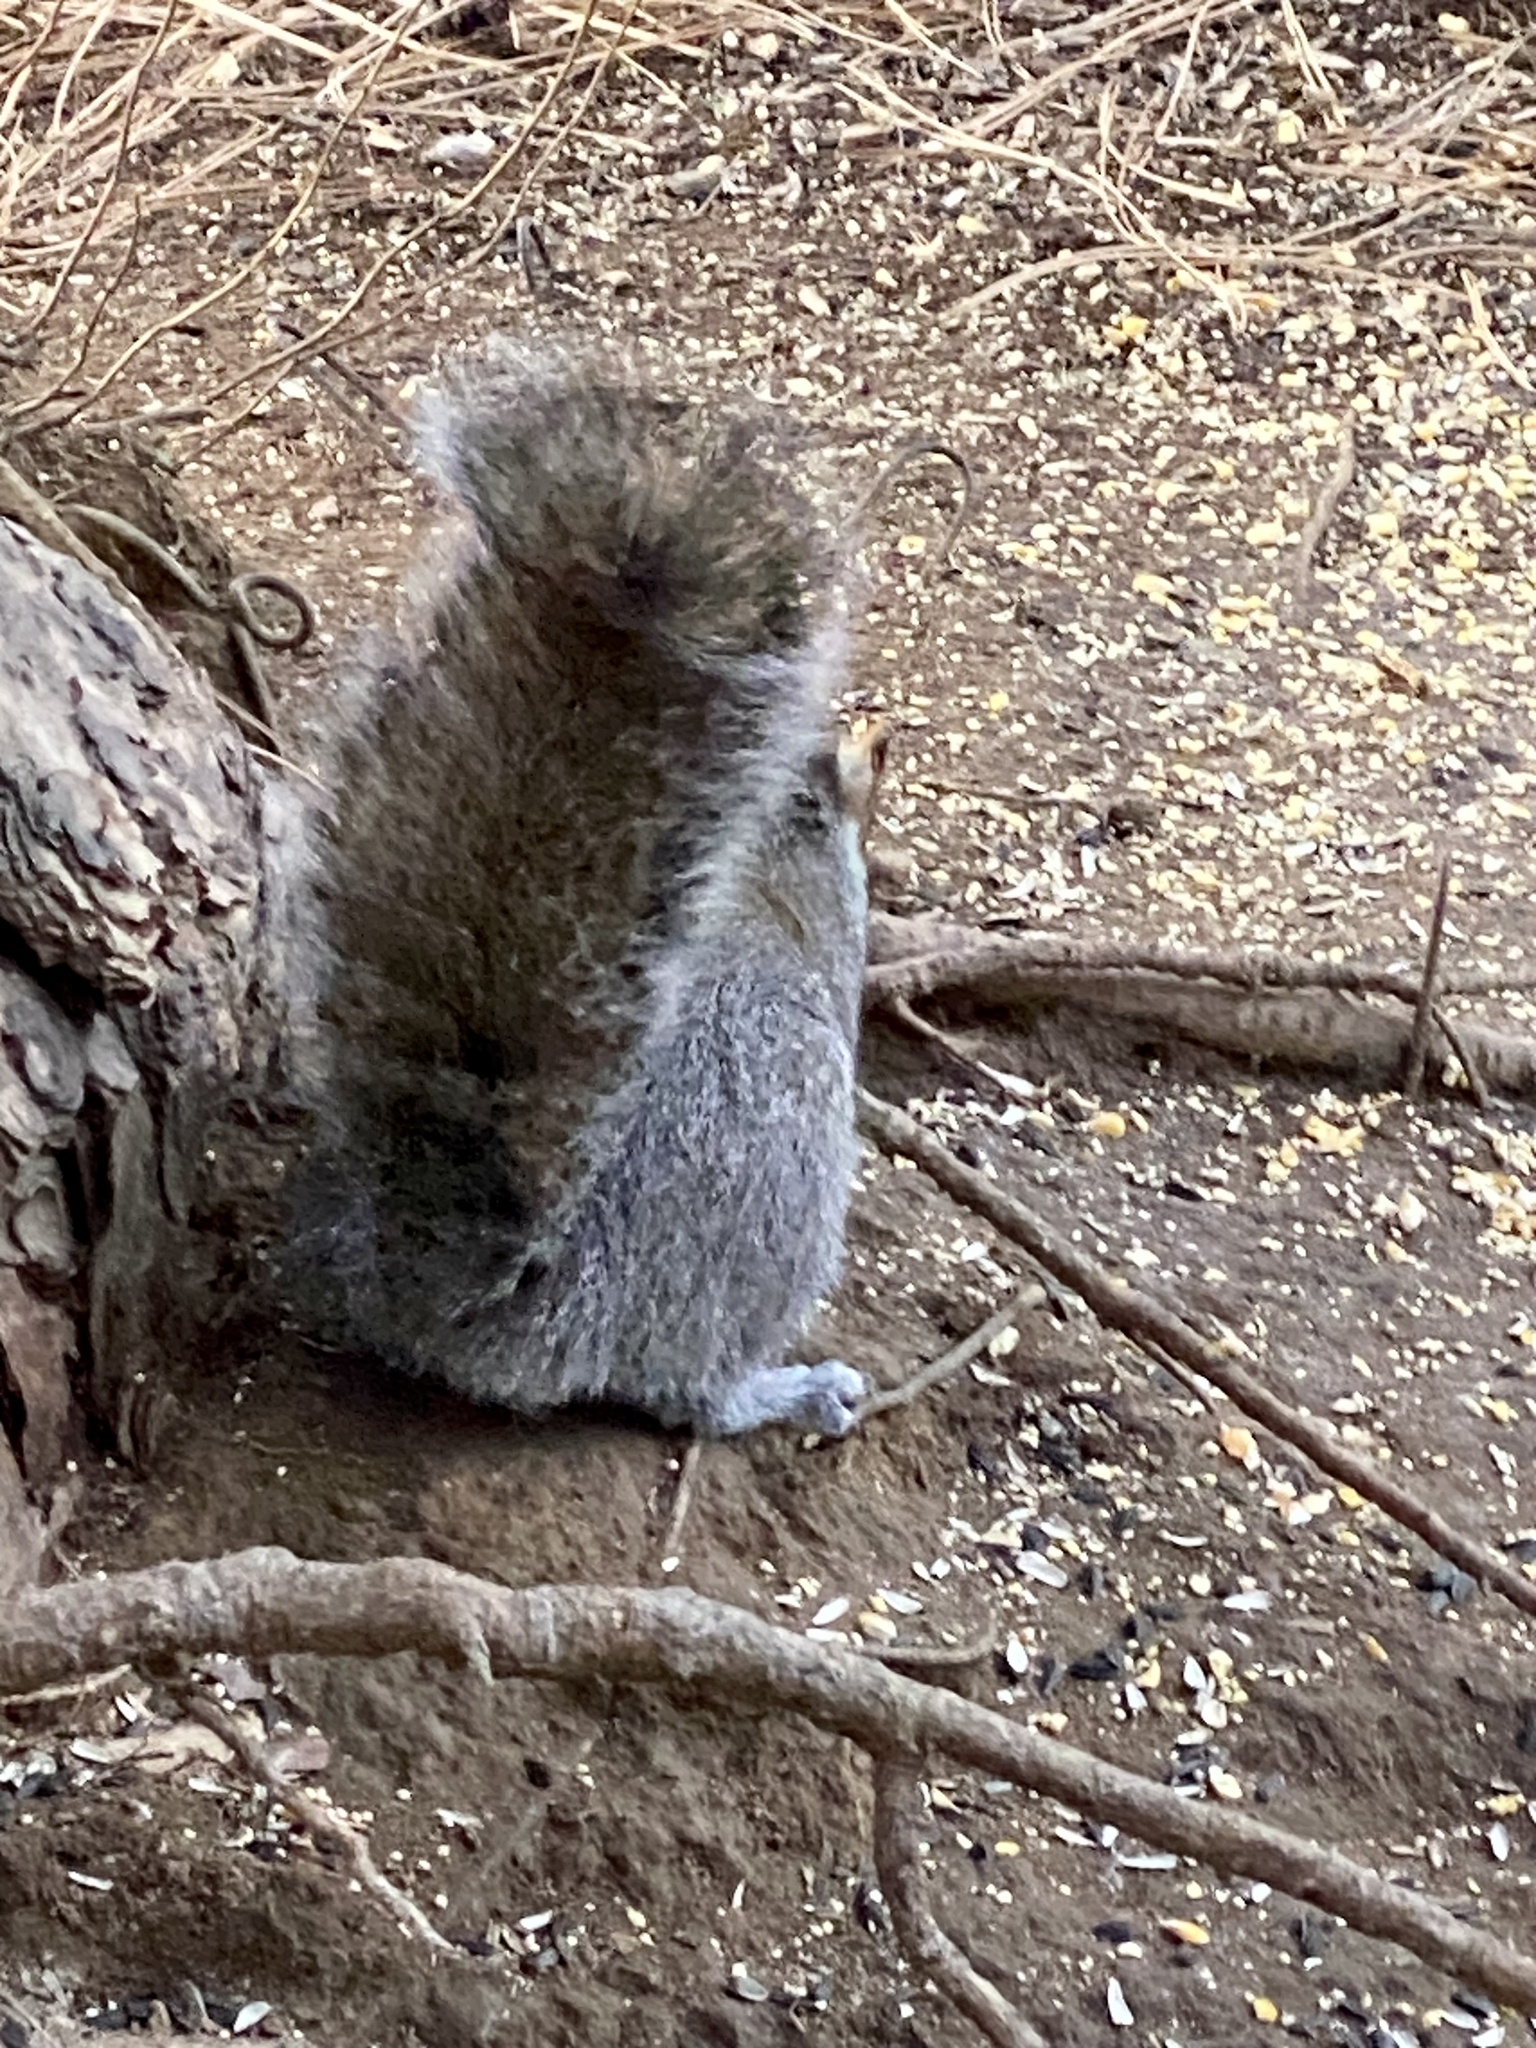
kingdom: Animalia
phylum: Chordata
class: Mammalia
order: Rodentia
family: Sciuridae
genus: Sciurus
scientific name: Sciurus carolinensis
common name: Eastern gray squirrel
